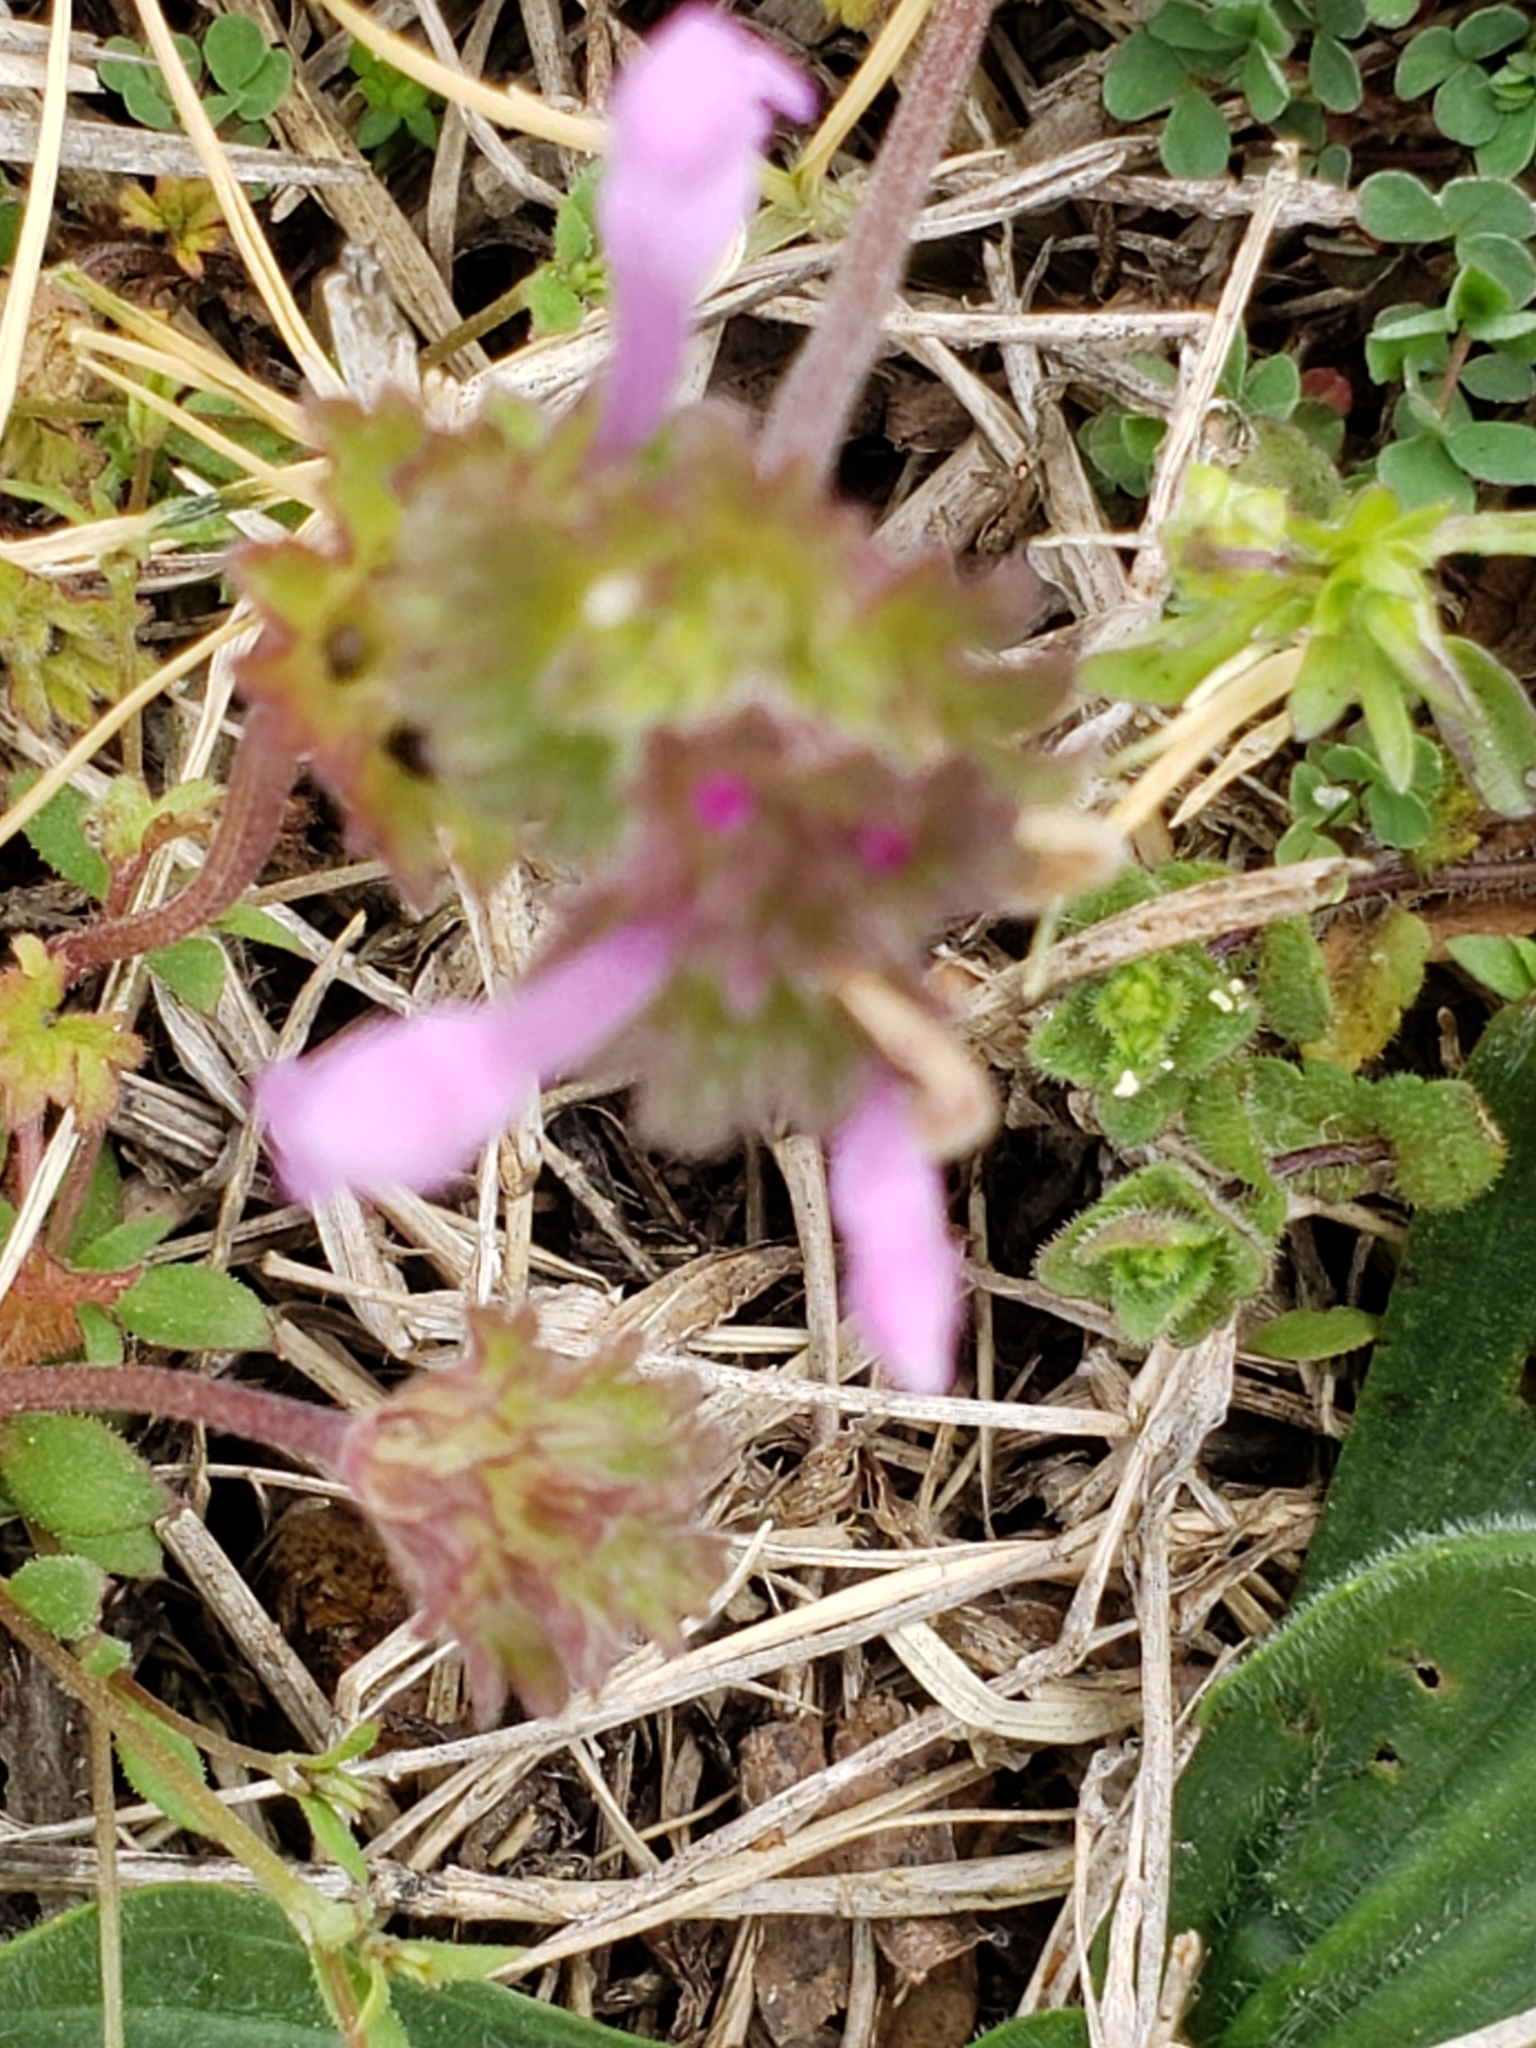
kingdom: Plantae
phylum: Tracheophyta
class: Magnoliopsida
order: Lamiales
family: Lamiaceae
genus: Lamium
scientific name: Lamium amplexicaule
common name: Henbit dead-nettle
